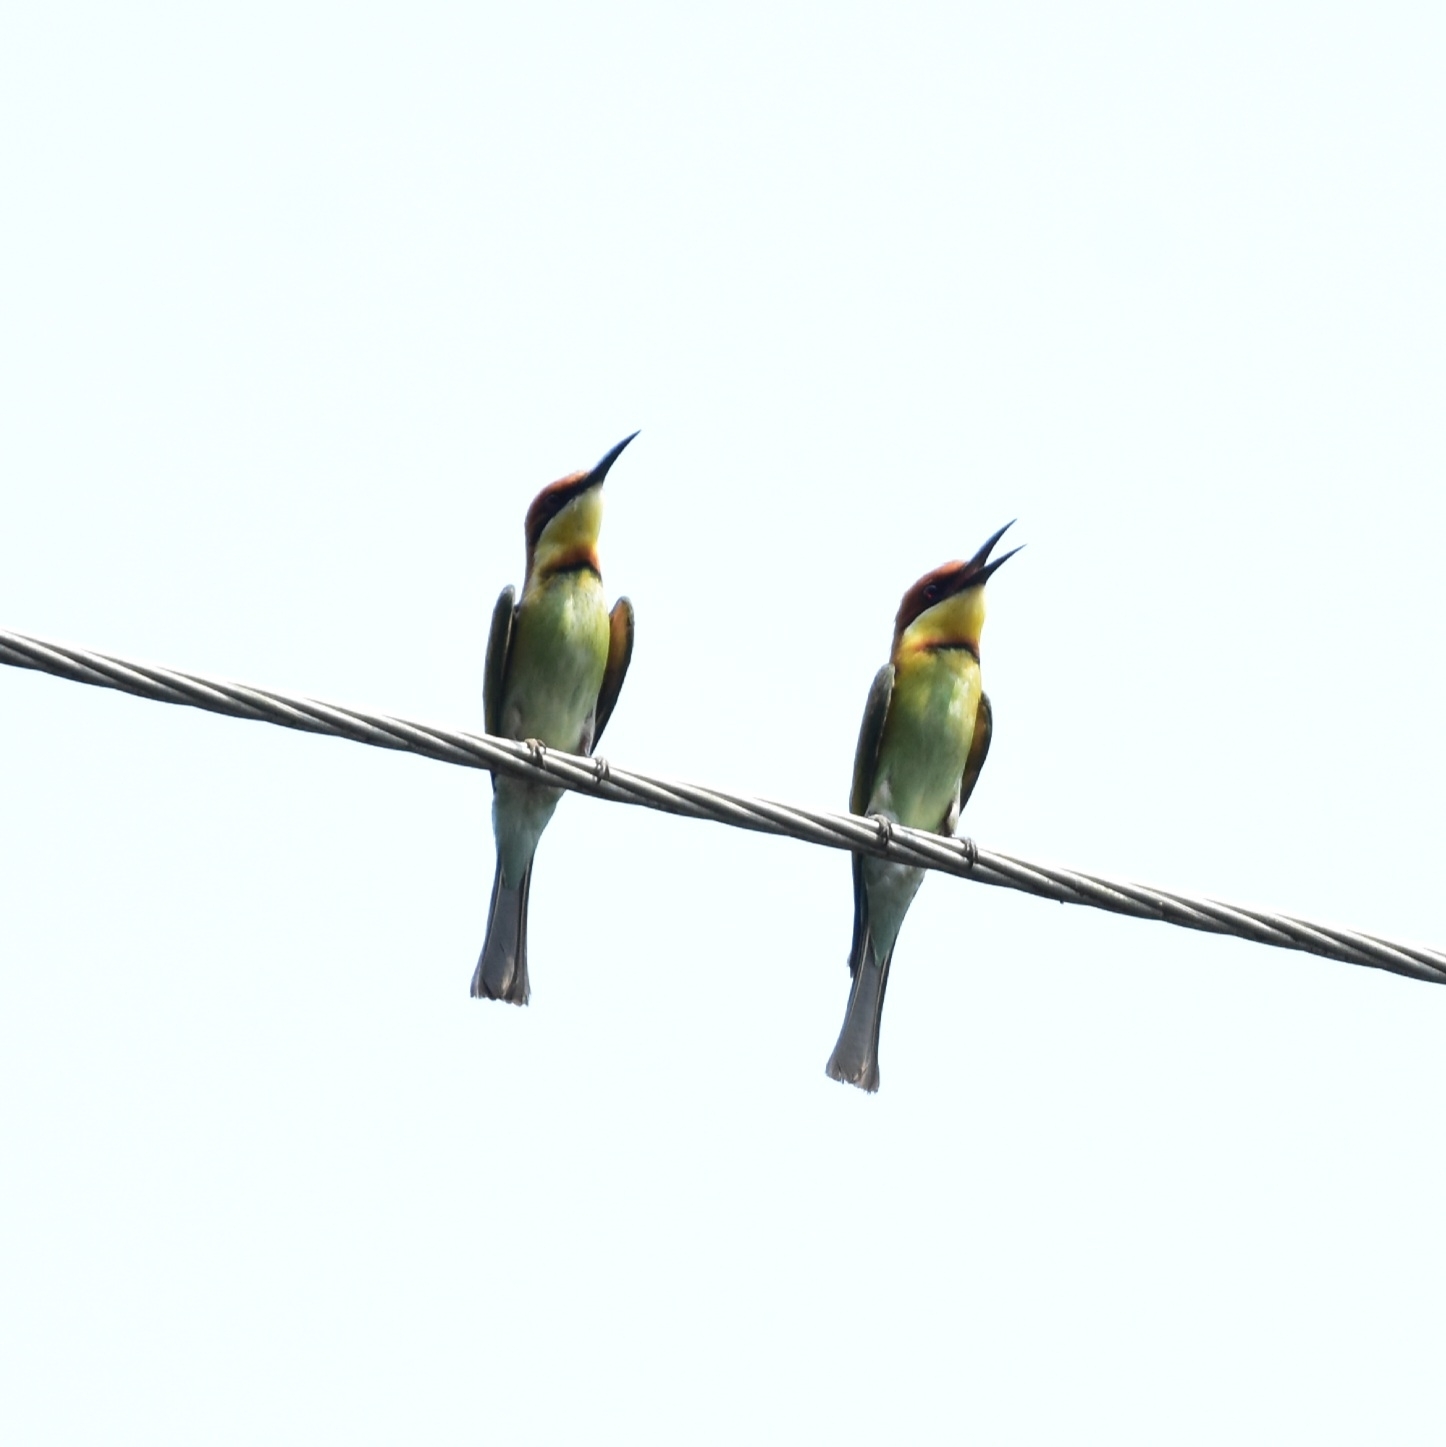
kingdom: Animalia
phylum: Chordata
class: Aves
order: Coraciiformes
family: Meropidae
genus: Merops
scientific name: Merops leschenaulti
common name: Chestnut-headed bee-eater
